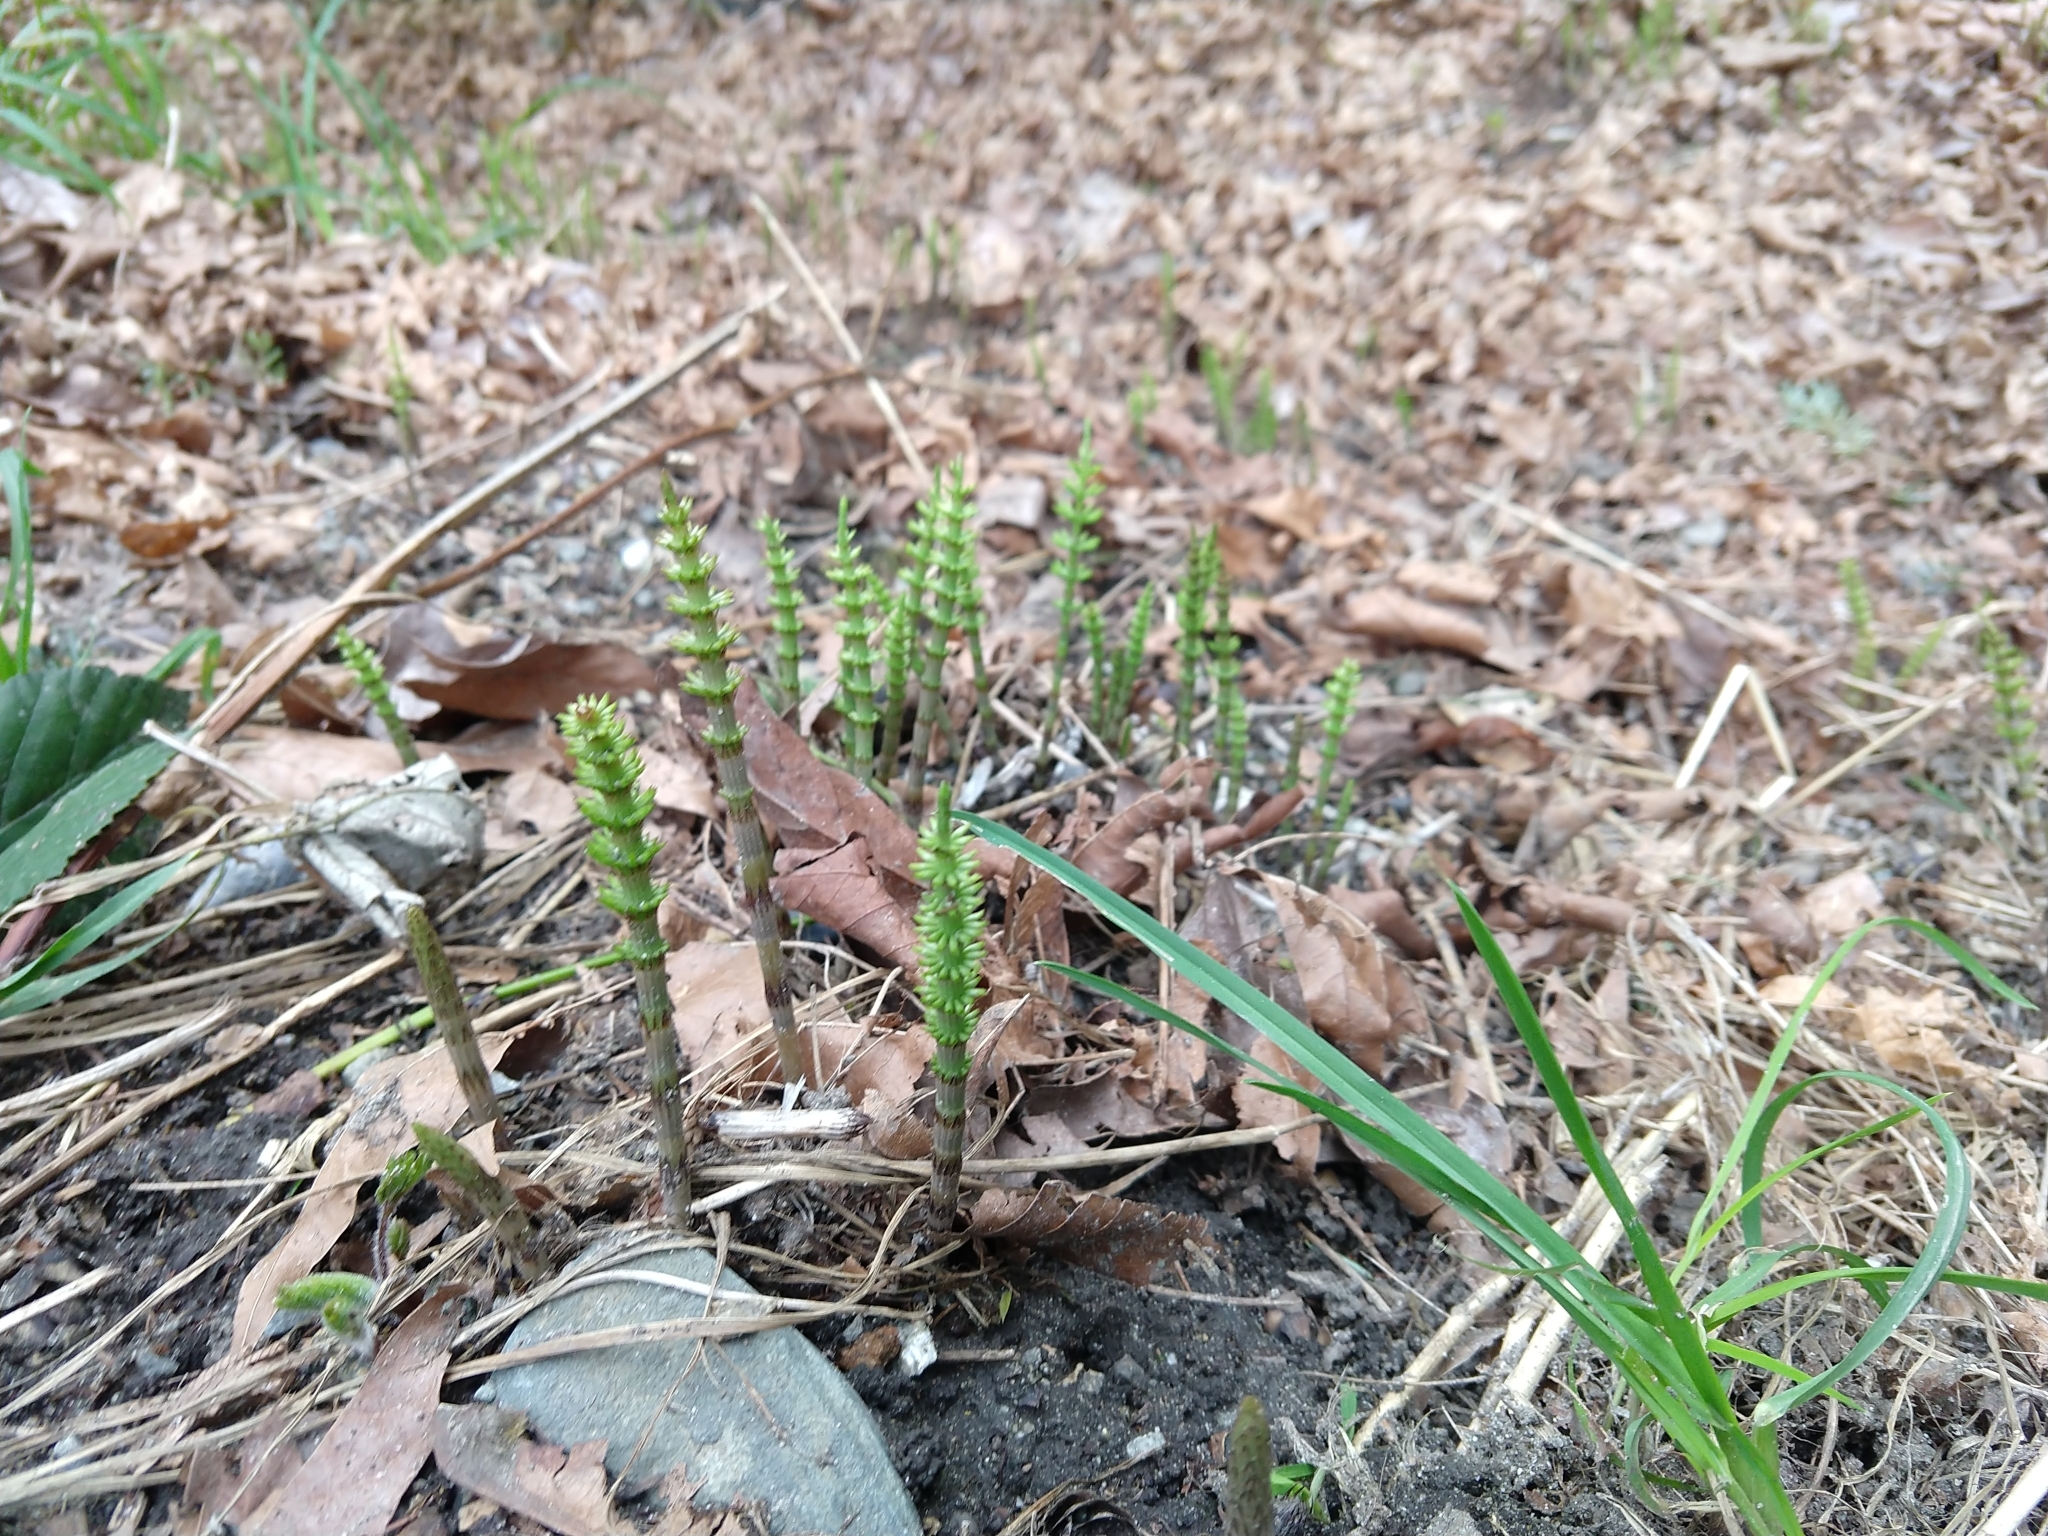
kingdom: Plantae
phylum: Tracheophyta
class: Polypodiopsida
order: Equisetales
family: Equisetaceae
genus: Equisetum
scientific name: Equisetum telmateia
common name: Great horsetail
